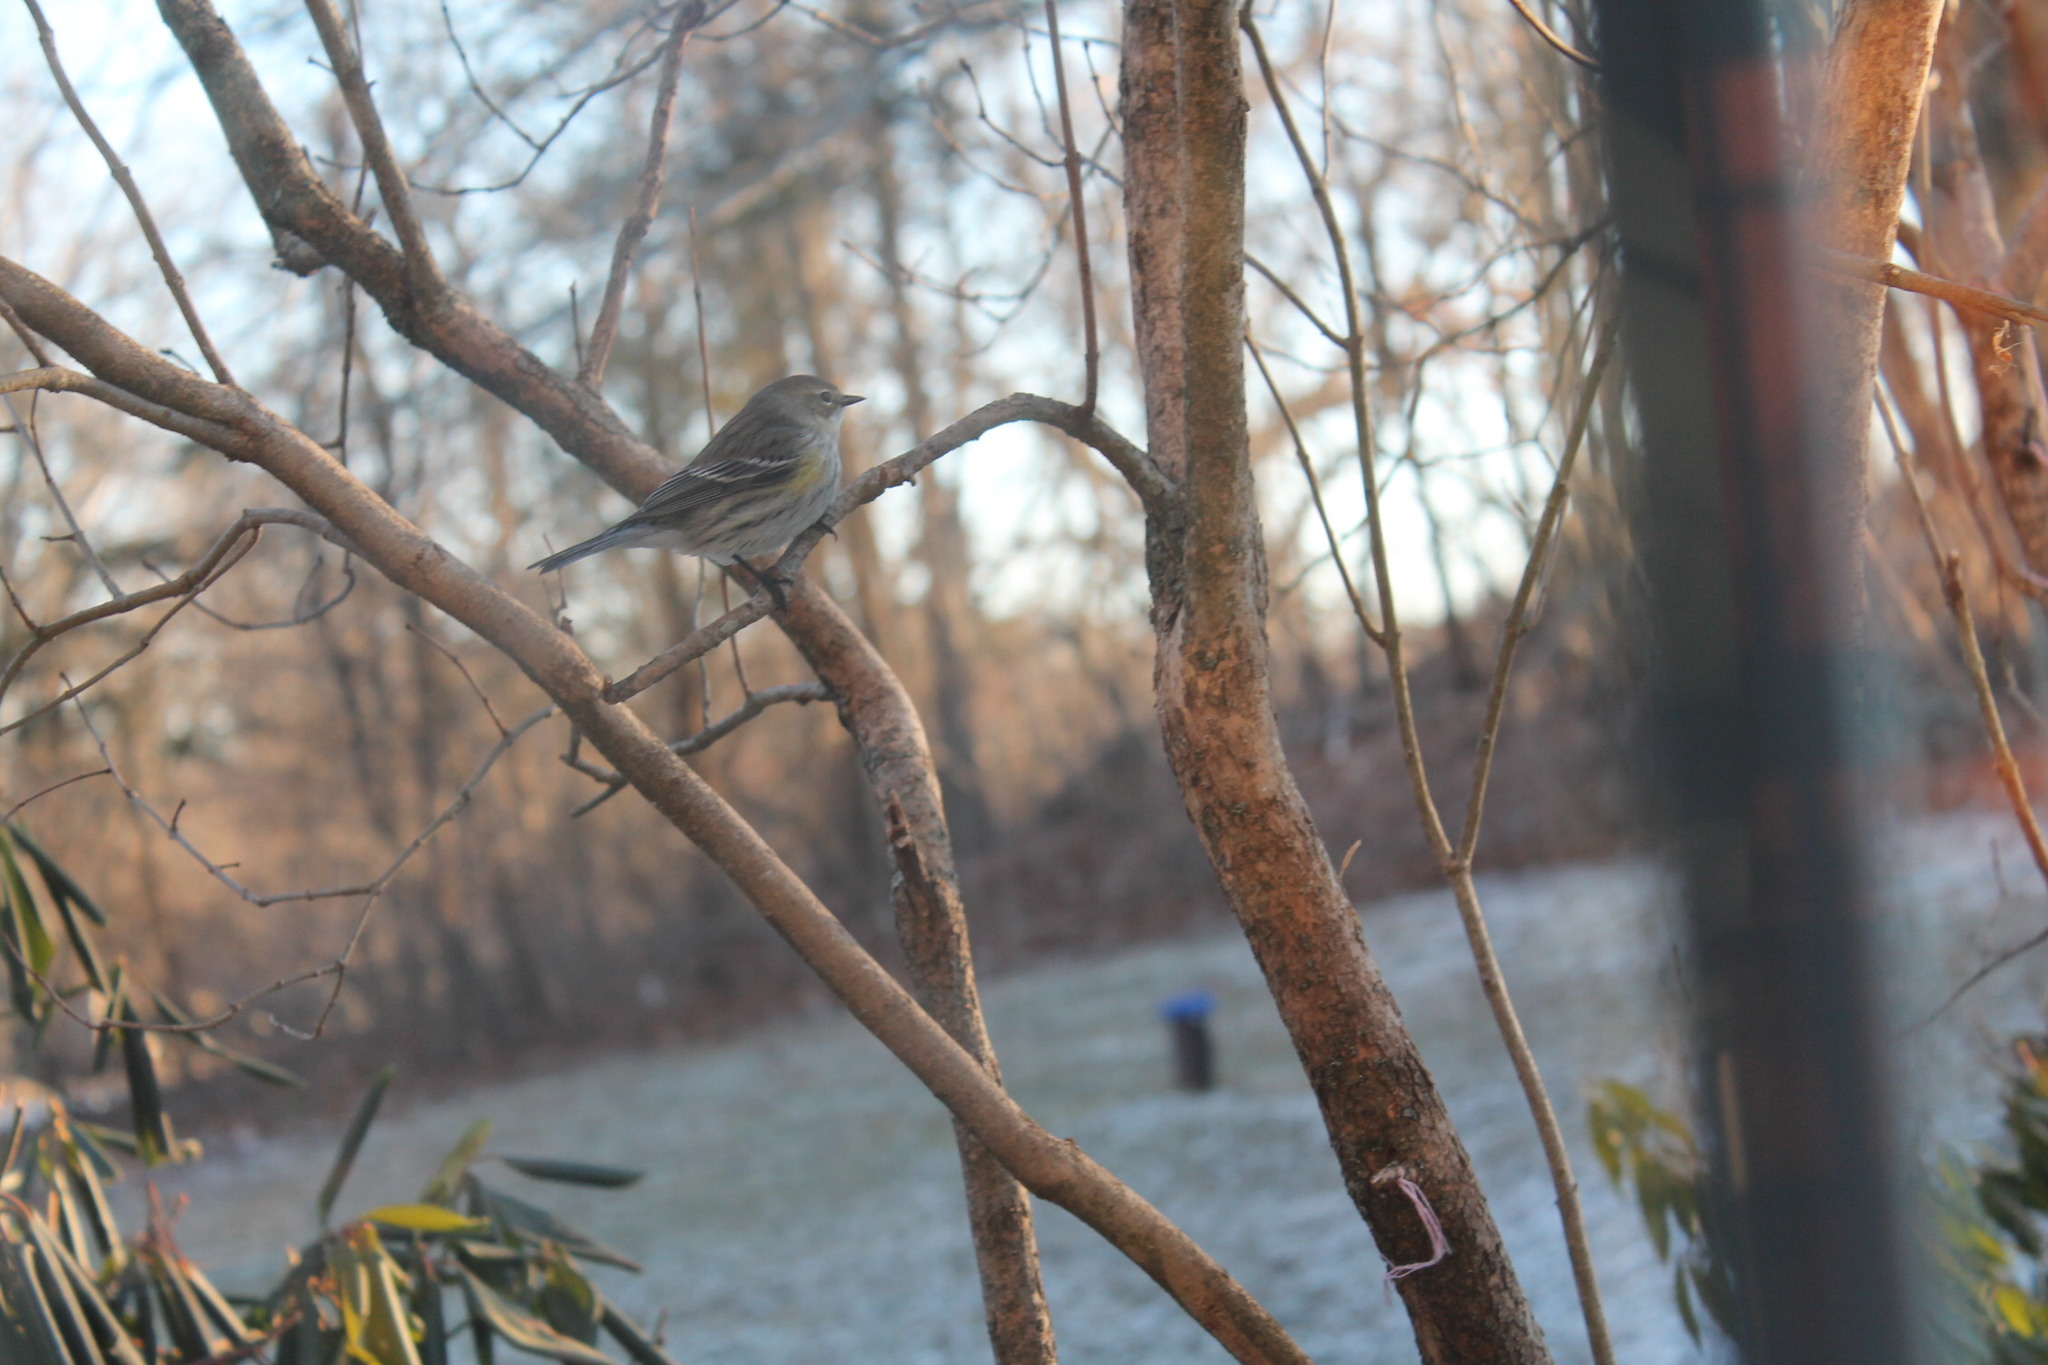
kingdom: Animalia
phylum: Chordata
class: Aves
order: Passeriformes
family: Parulidae
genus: Setophaga
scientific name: Setophaga coronata
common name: Myrtle warbler
